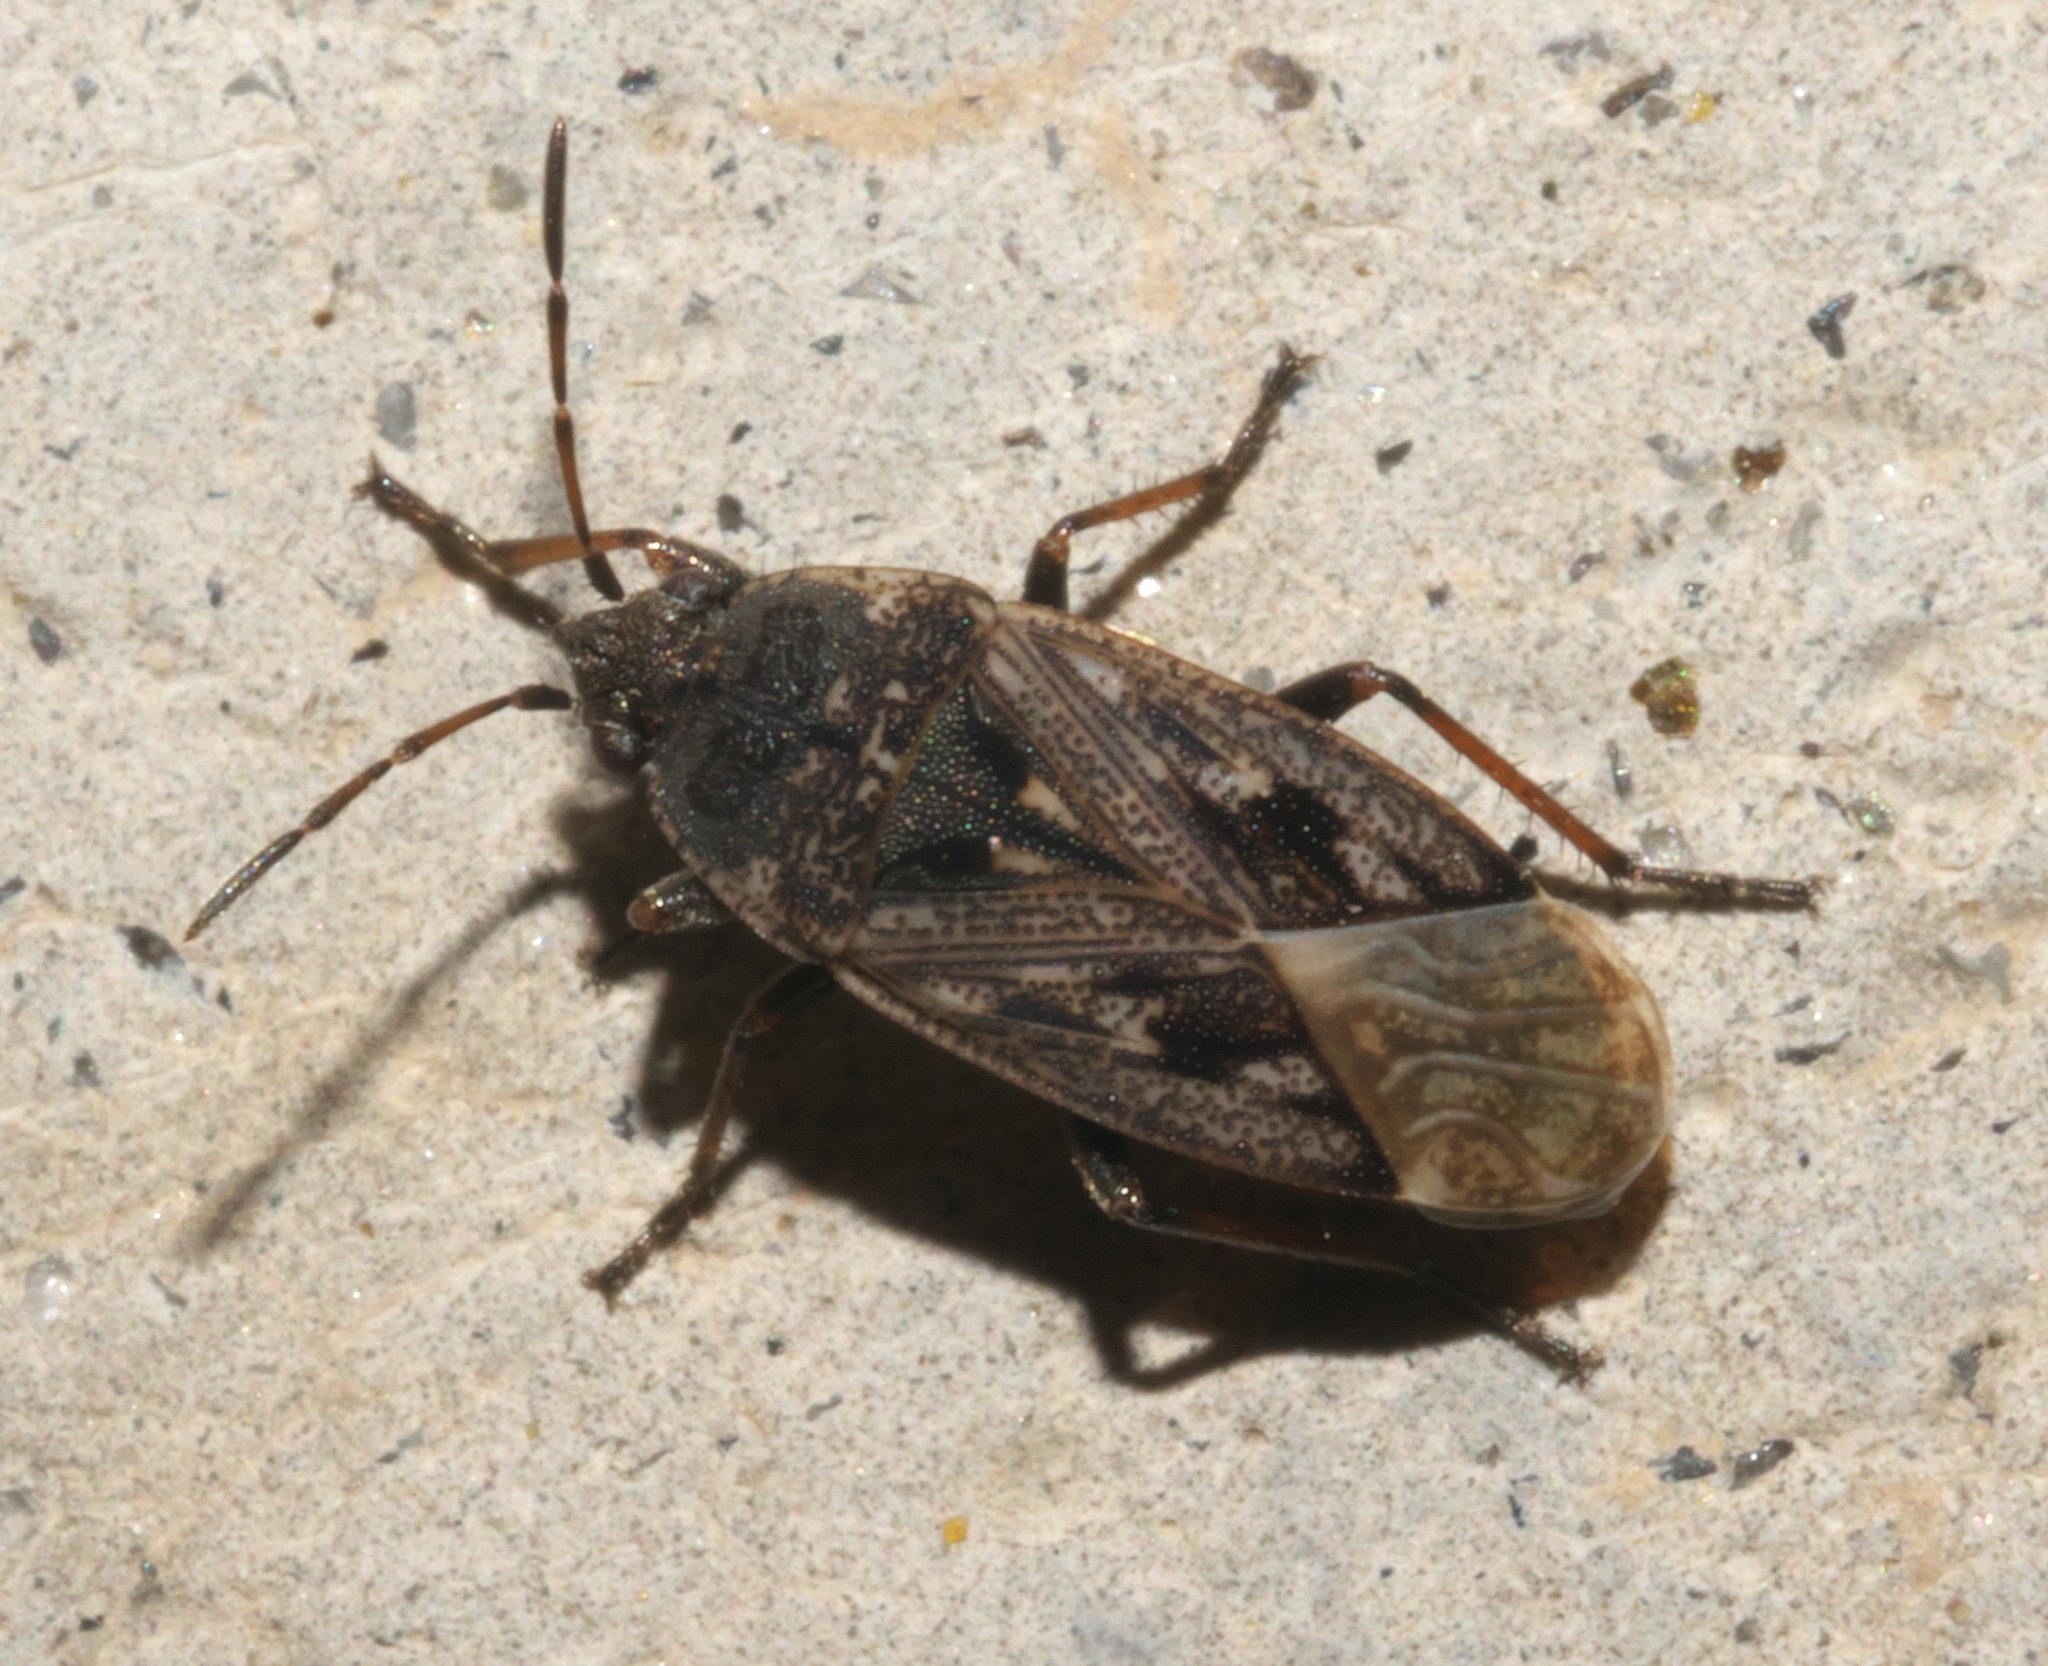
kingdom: Animalia
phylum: Arthropoda
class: Insecta
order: Hemiptera
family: Rhyparochromidae
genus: Sphragisticus
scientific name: Sphragisticus nebulosus
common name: Dirt-colored seed bug
